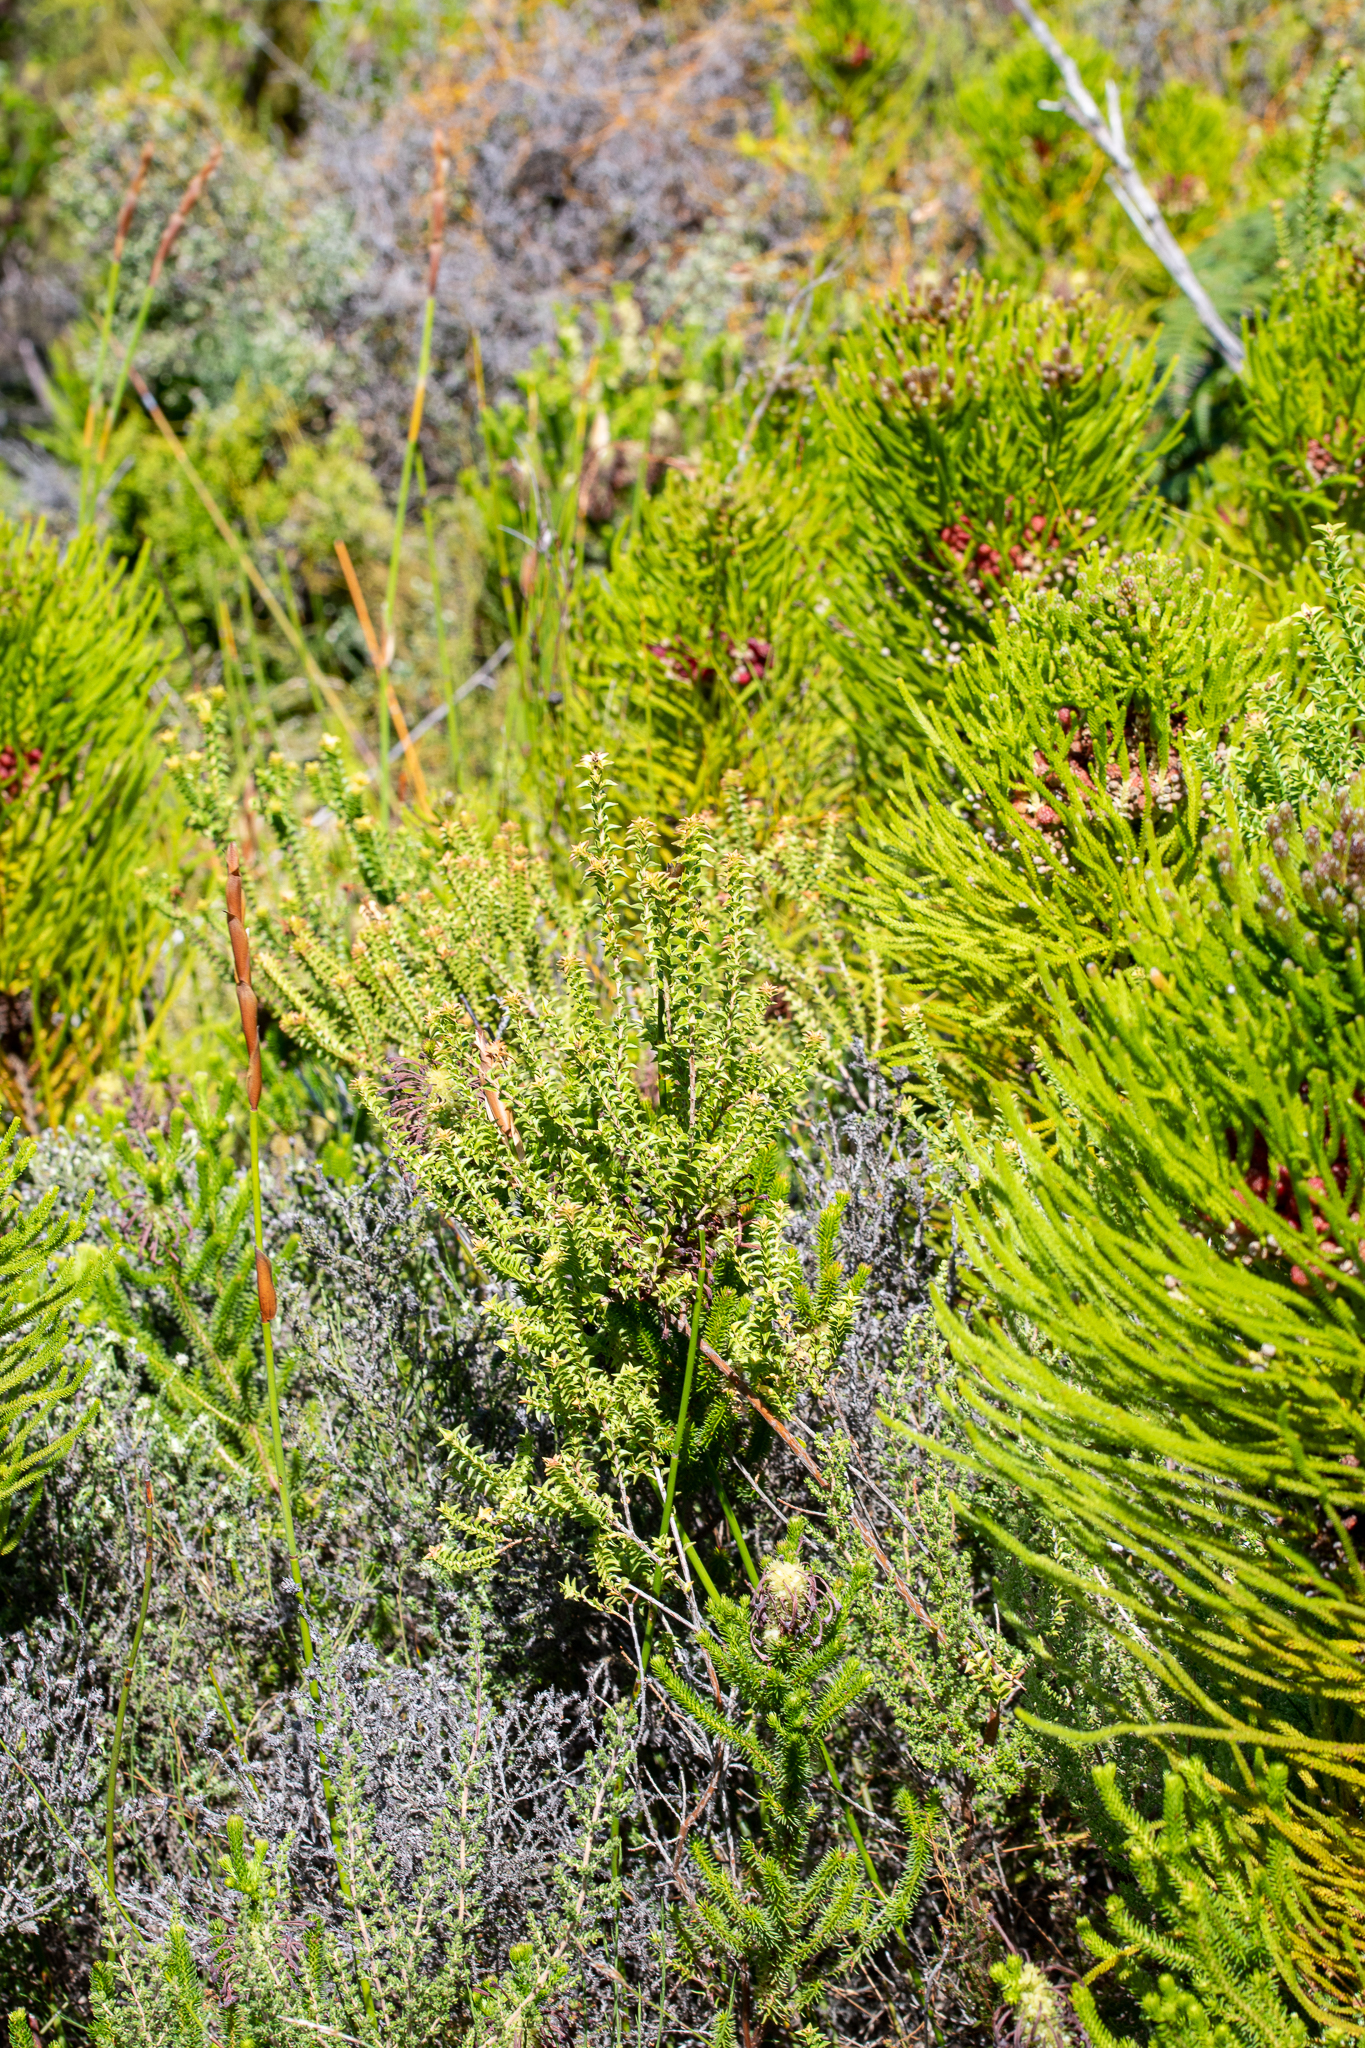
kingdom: Plantae
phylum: Tracheophyta
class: Magnoliopsida
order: Bruniales
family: Bruniaceae
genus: Berzelia
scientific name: Berzelia alopecurioides
